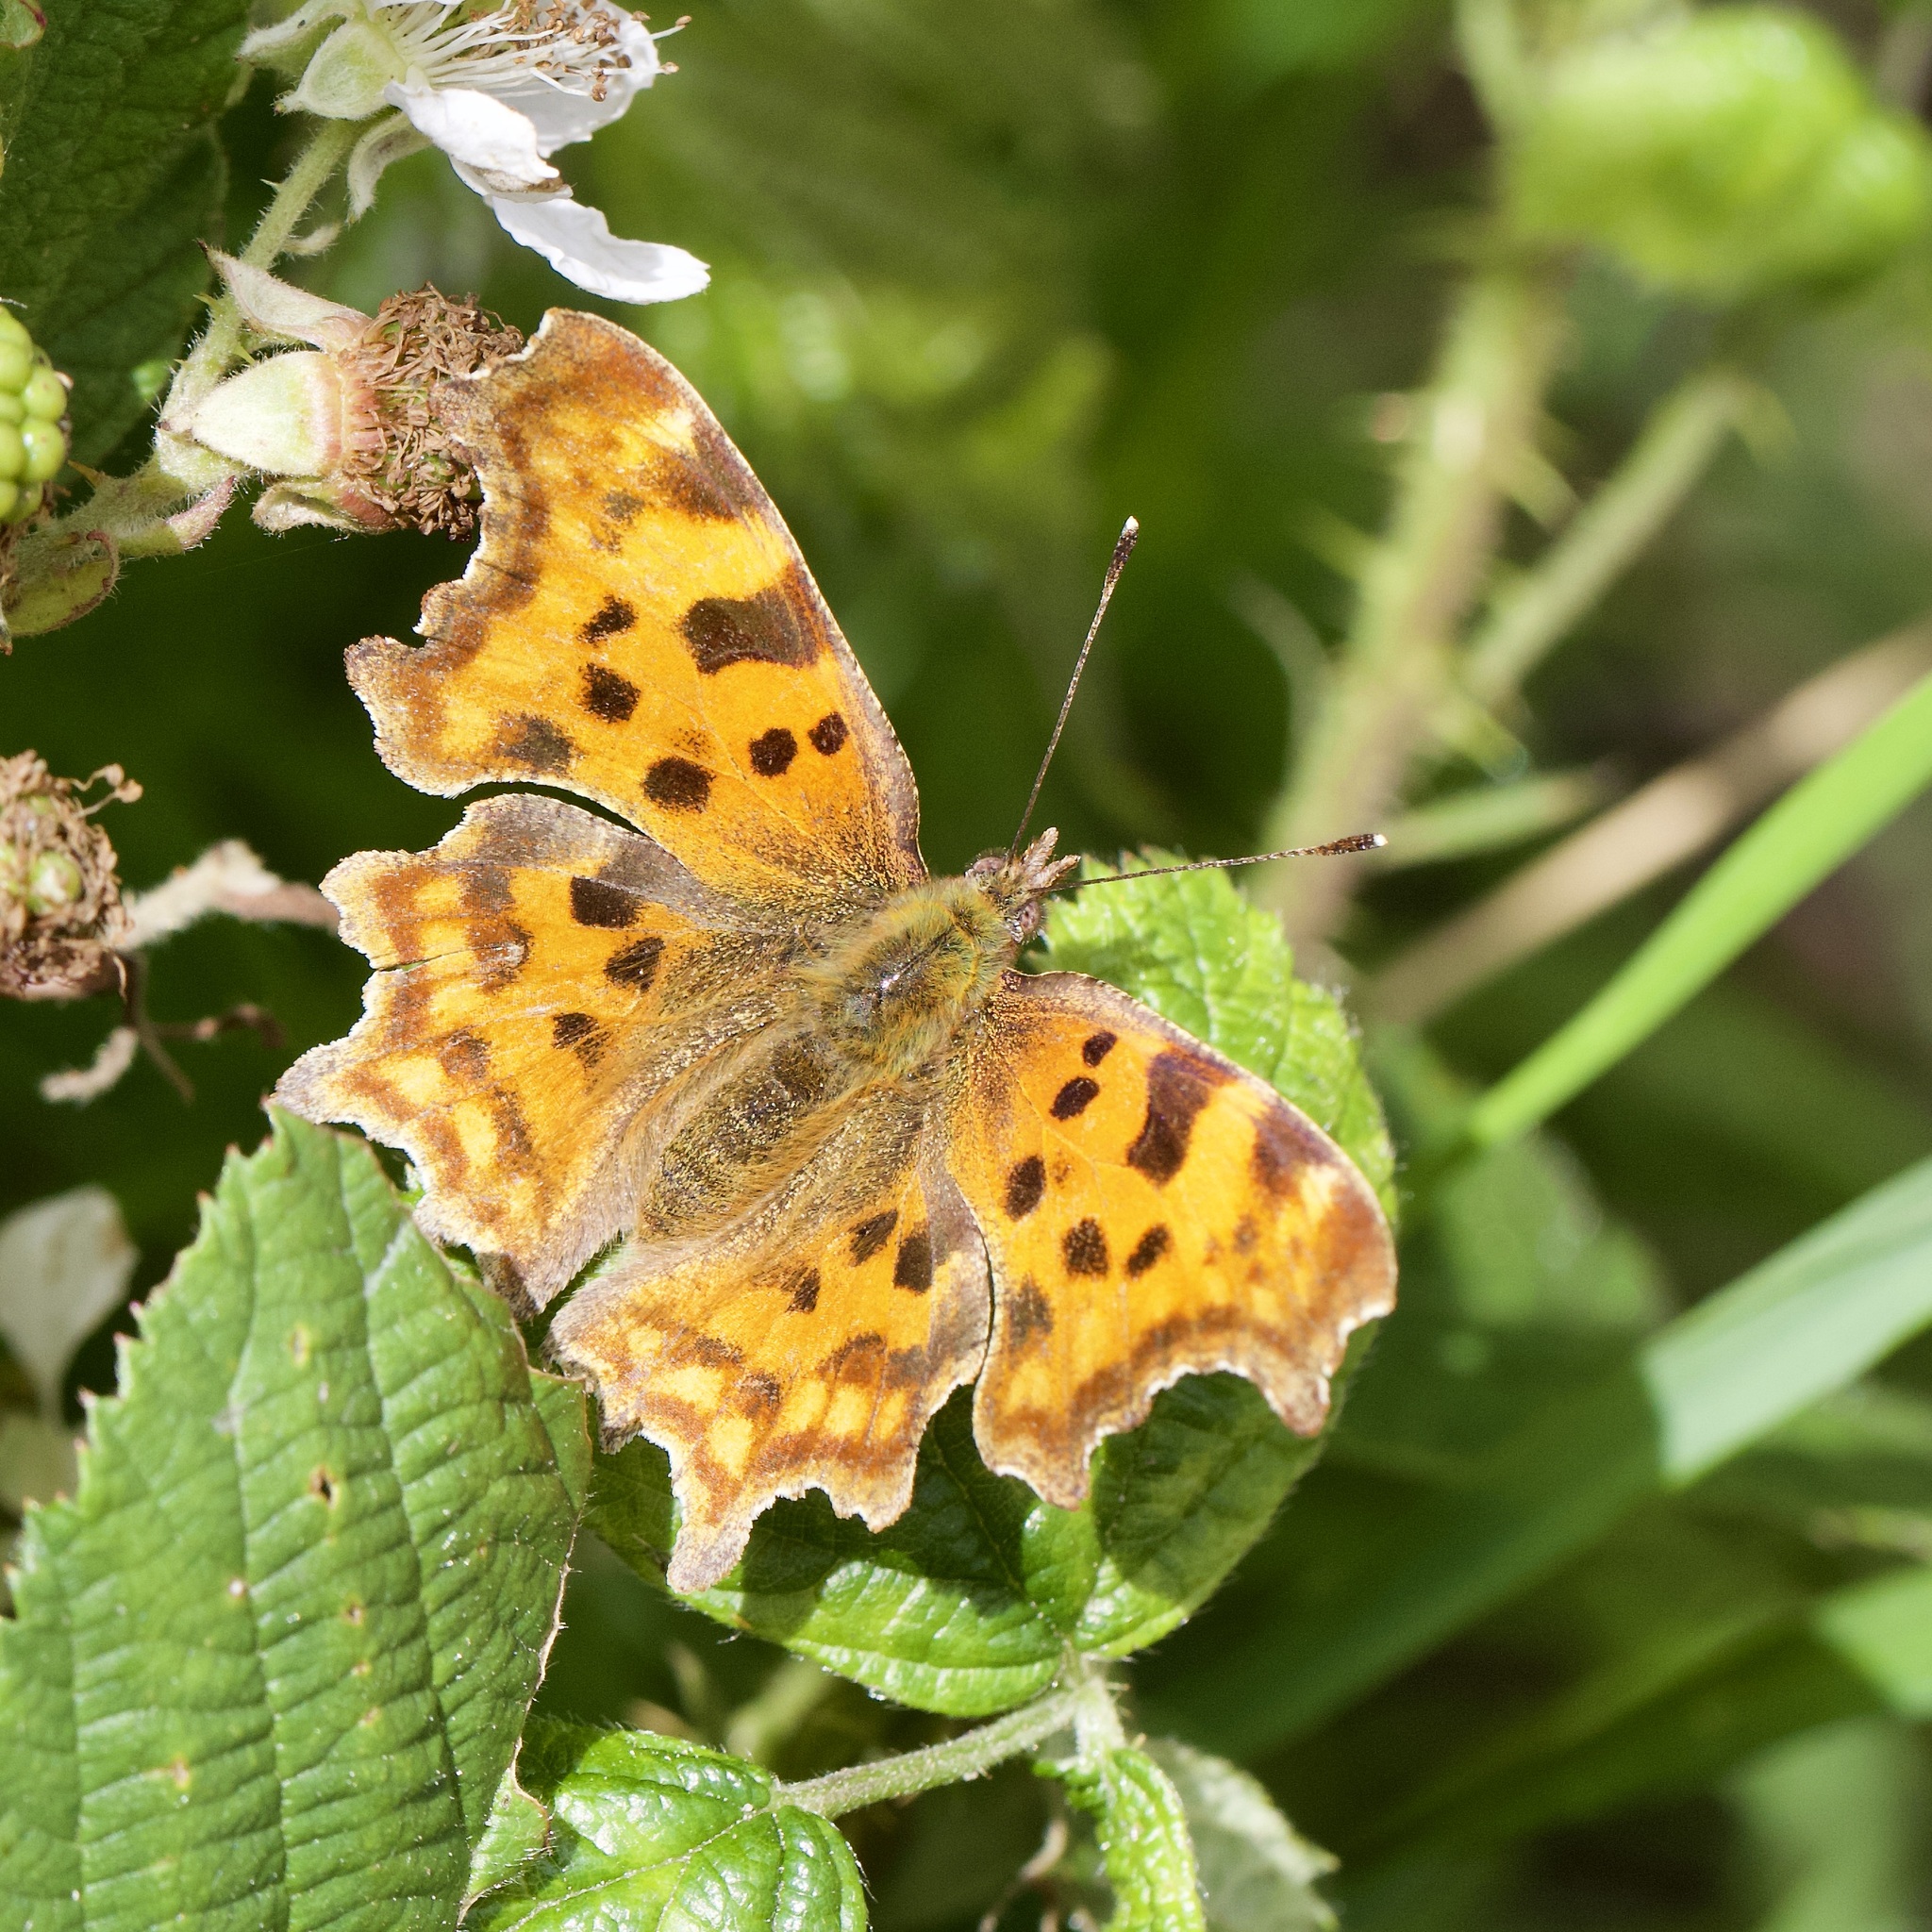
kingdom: Animalia
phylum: Arthropoda
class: Insecta
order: Lepidoptera
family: Nymphalidae
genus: Polygonia
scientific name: Polygonia c-album
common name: Comma
